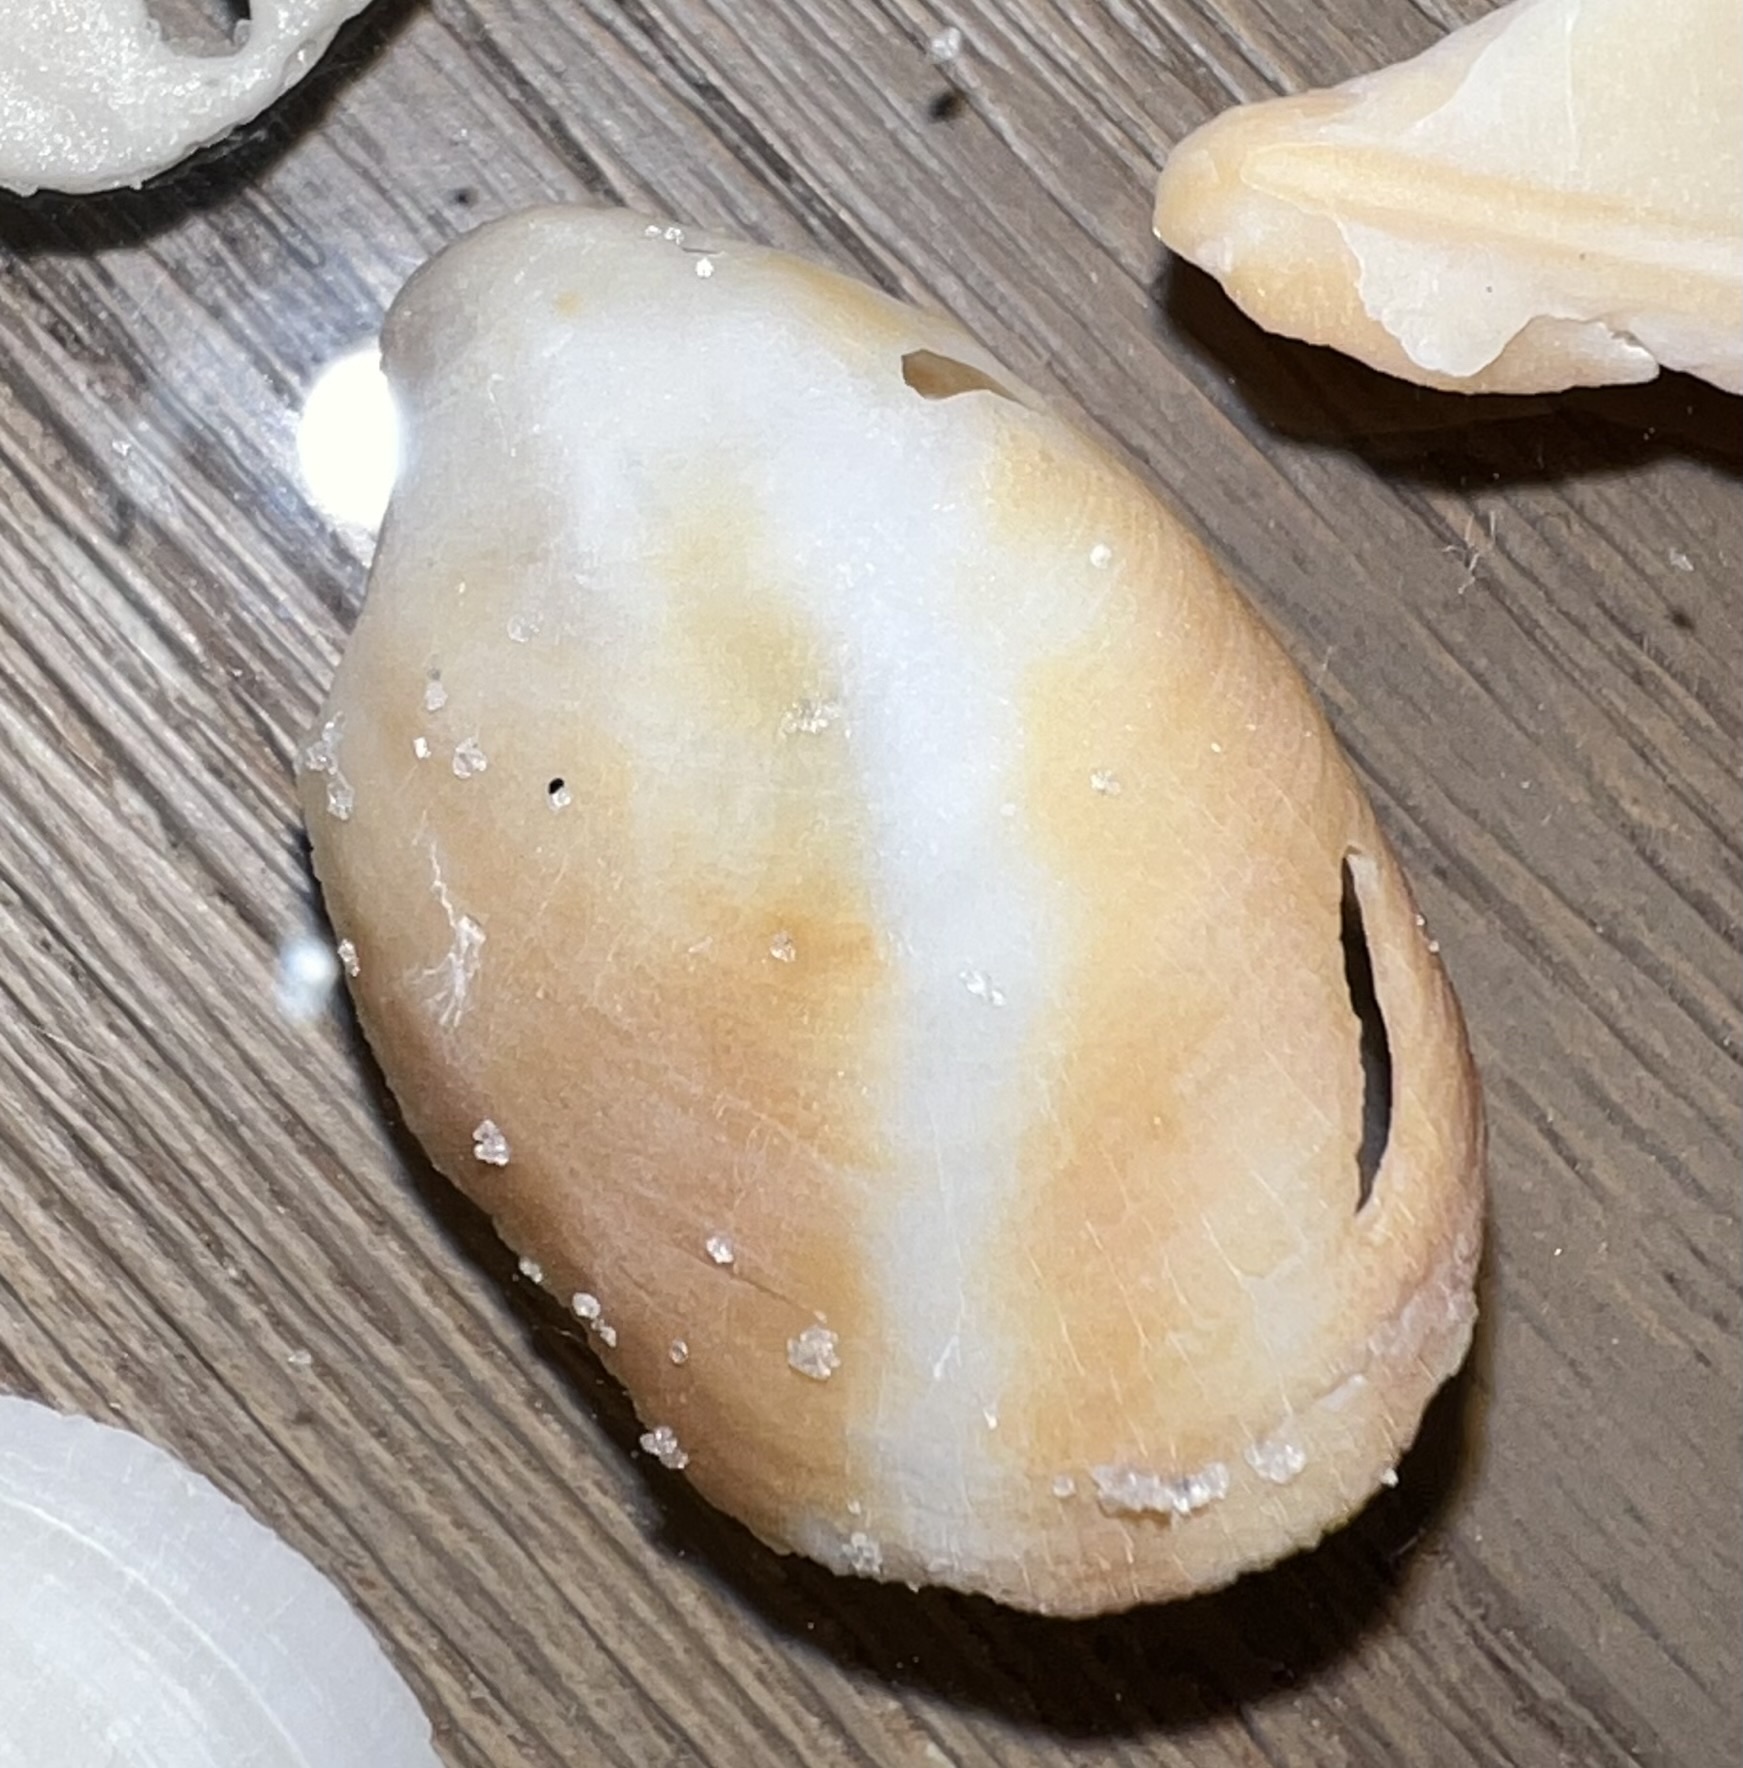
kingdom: Animalia
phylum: Mollusca
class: Gastropoda
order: Littorinimorpha
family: Calyptraeidae
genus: Crepidula
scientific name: Crepidula fornicata
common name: Slipper limpet
